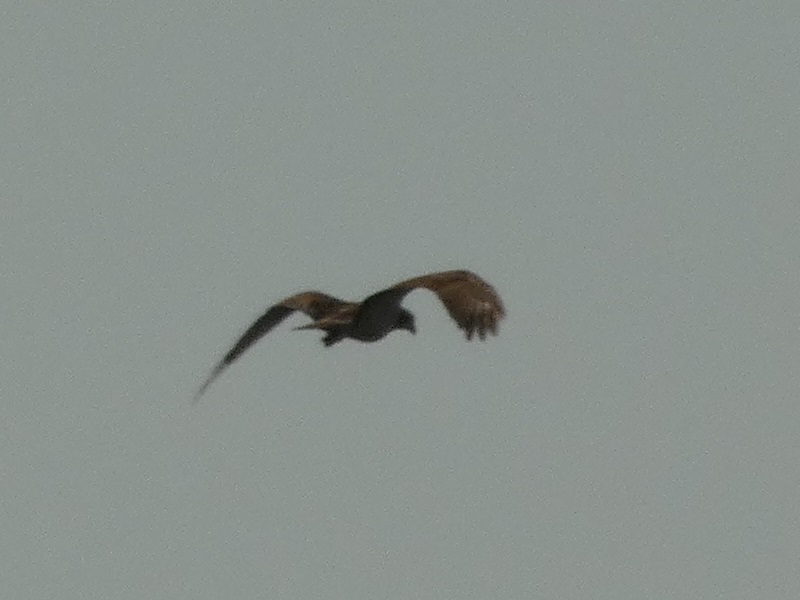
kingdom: Animalia
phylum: Chordata
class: Aves
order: Accipitriformes
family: Pandionidae
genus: Pandion
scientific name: Pandion haliaetus
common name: Osprey
